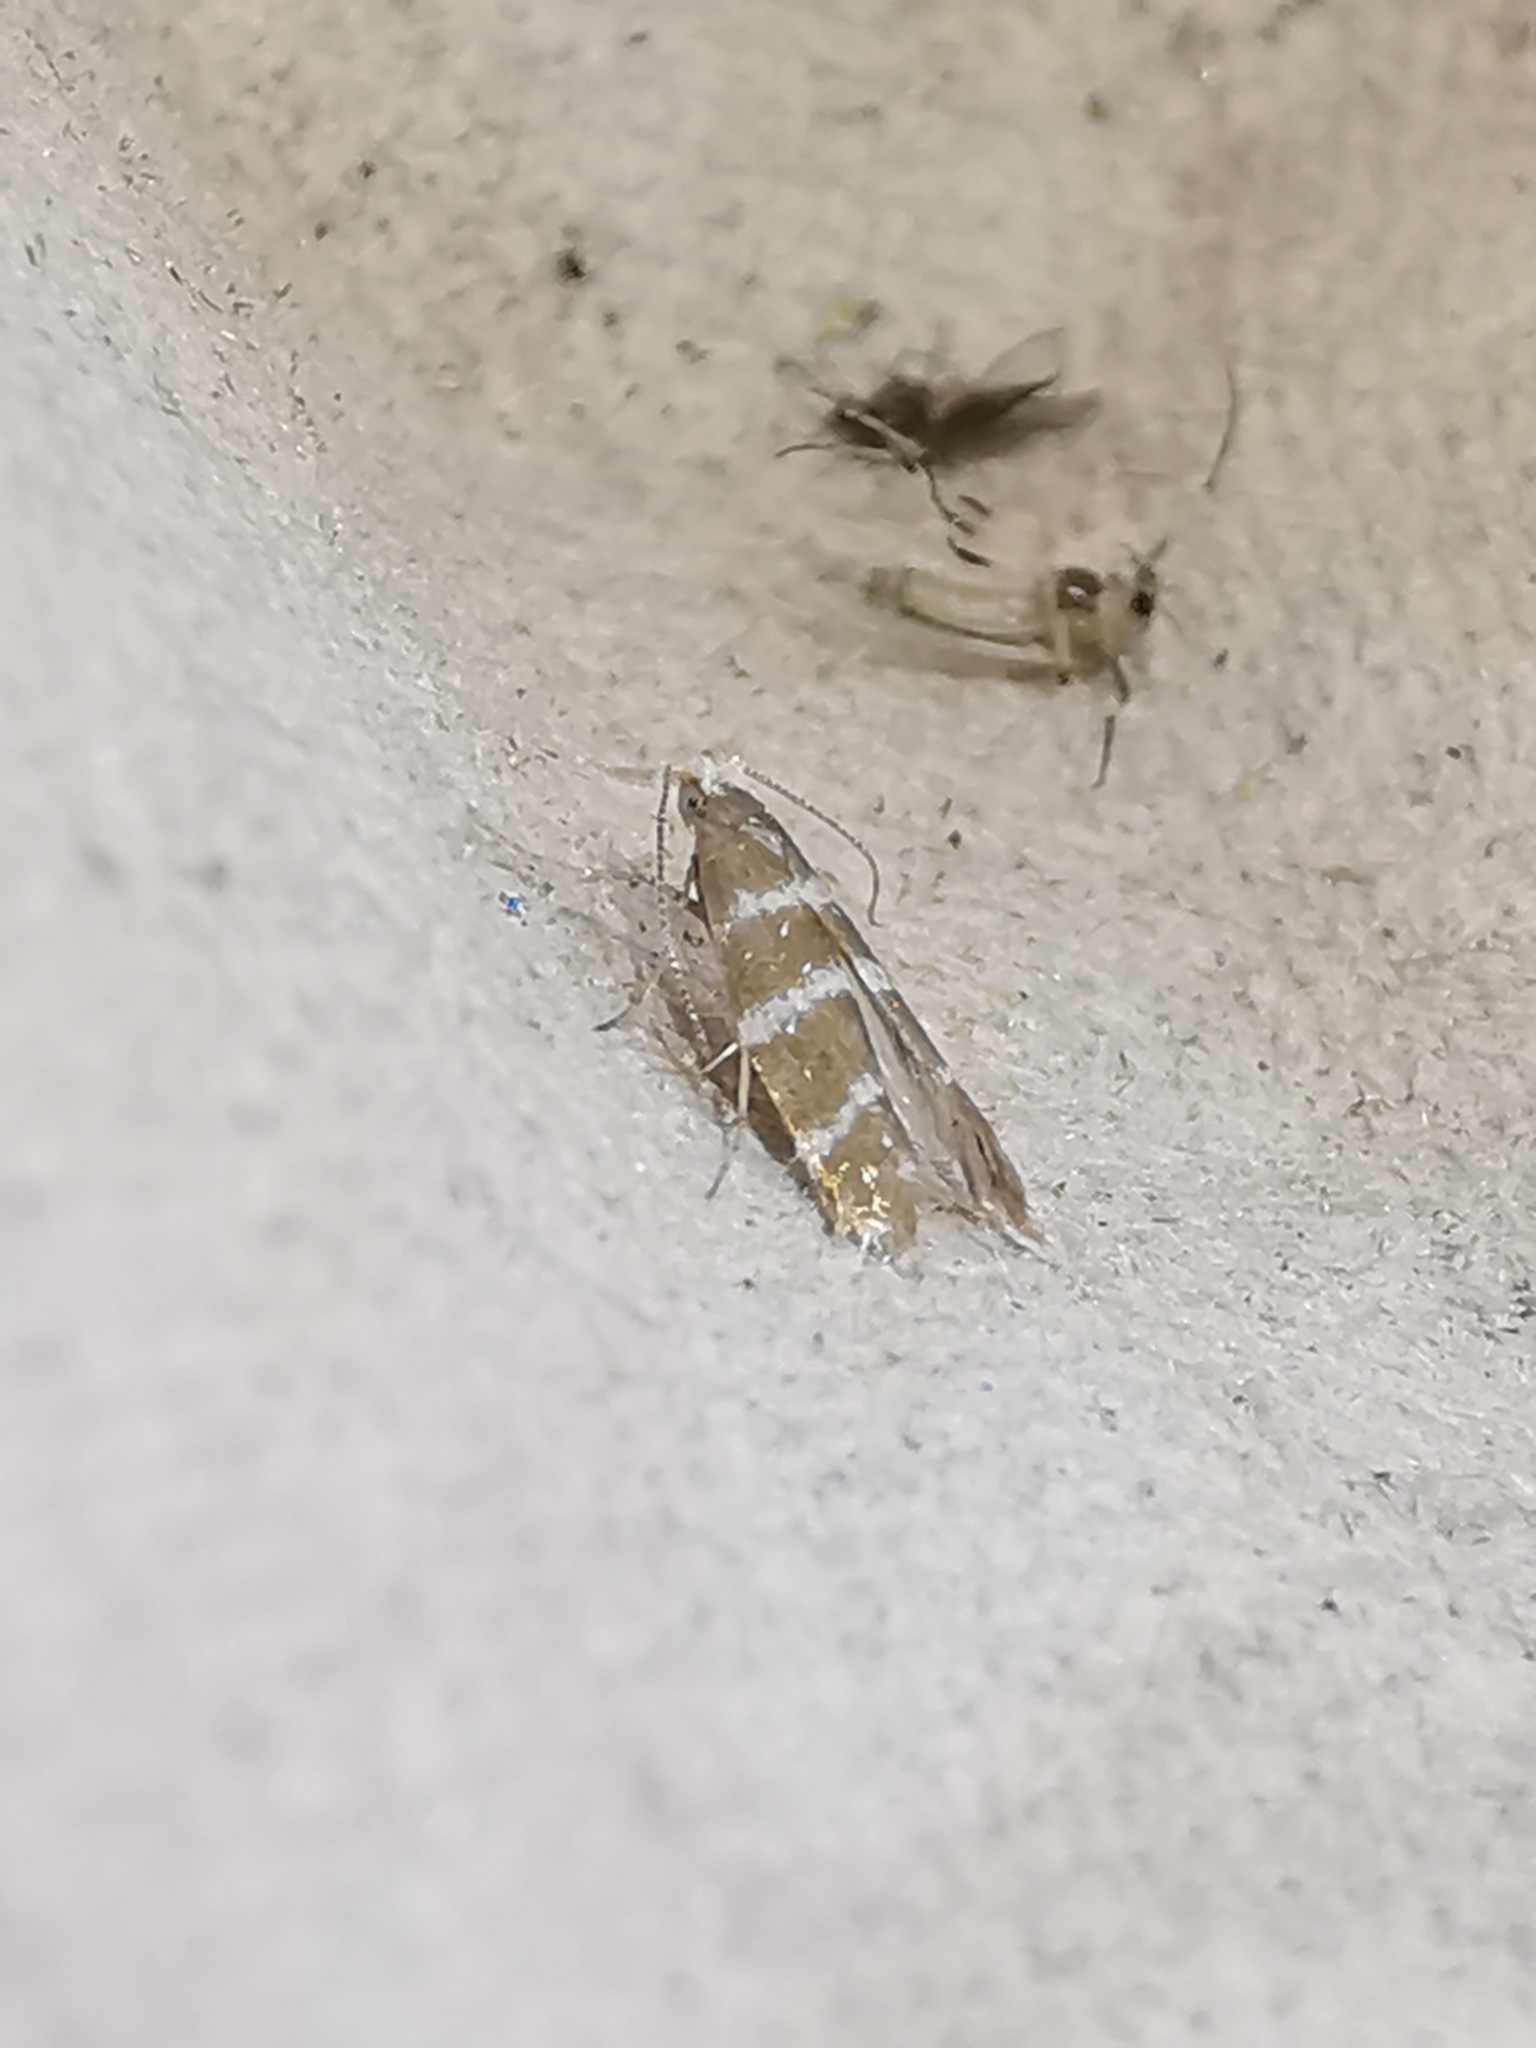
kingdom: Animalia
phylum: Arthropoda
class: Insecta
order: Lepidoptera
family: Argyresthiidae
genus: Argyresthia
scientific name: Argyresthia trifasciata
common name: Triple-barred argent
